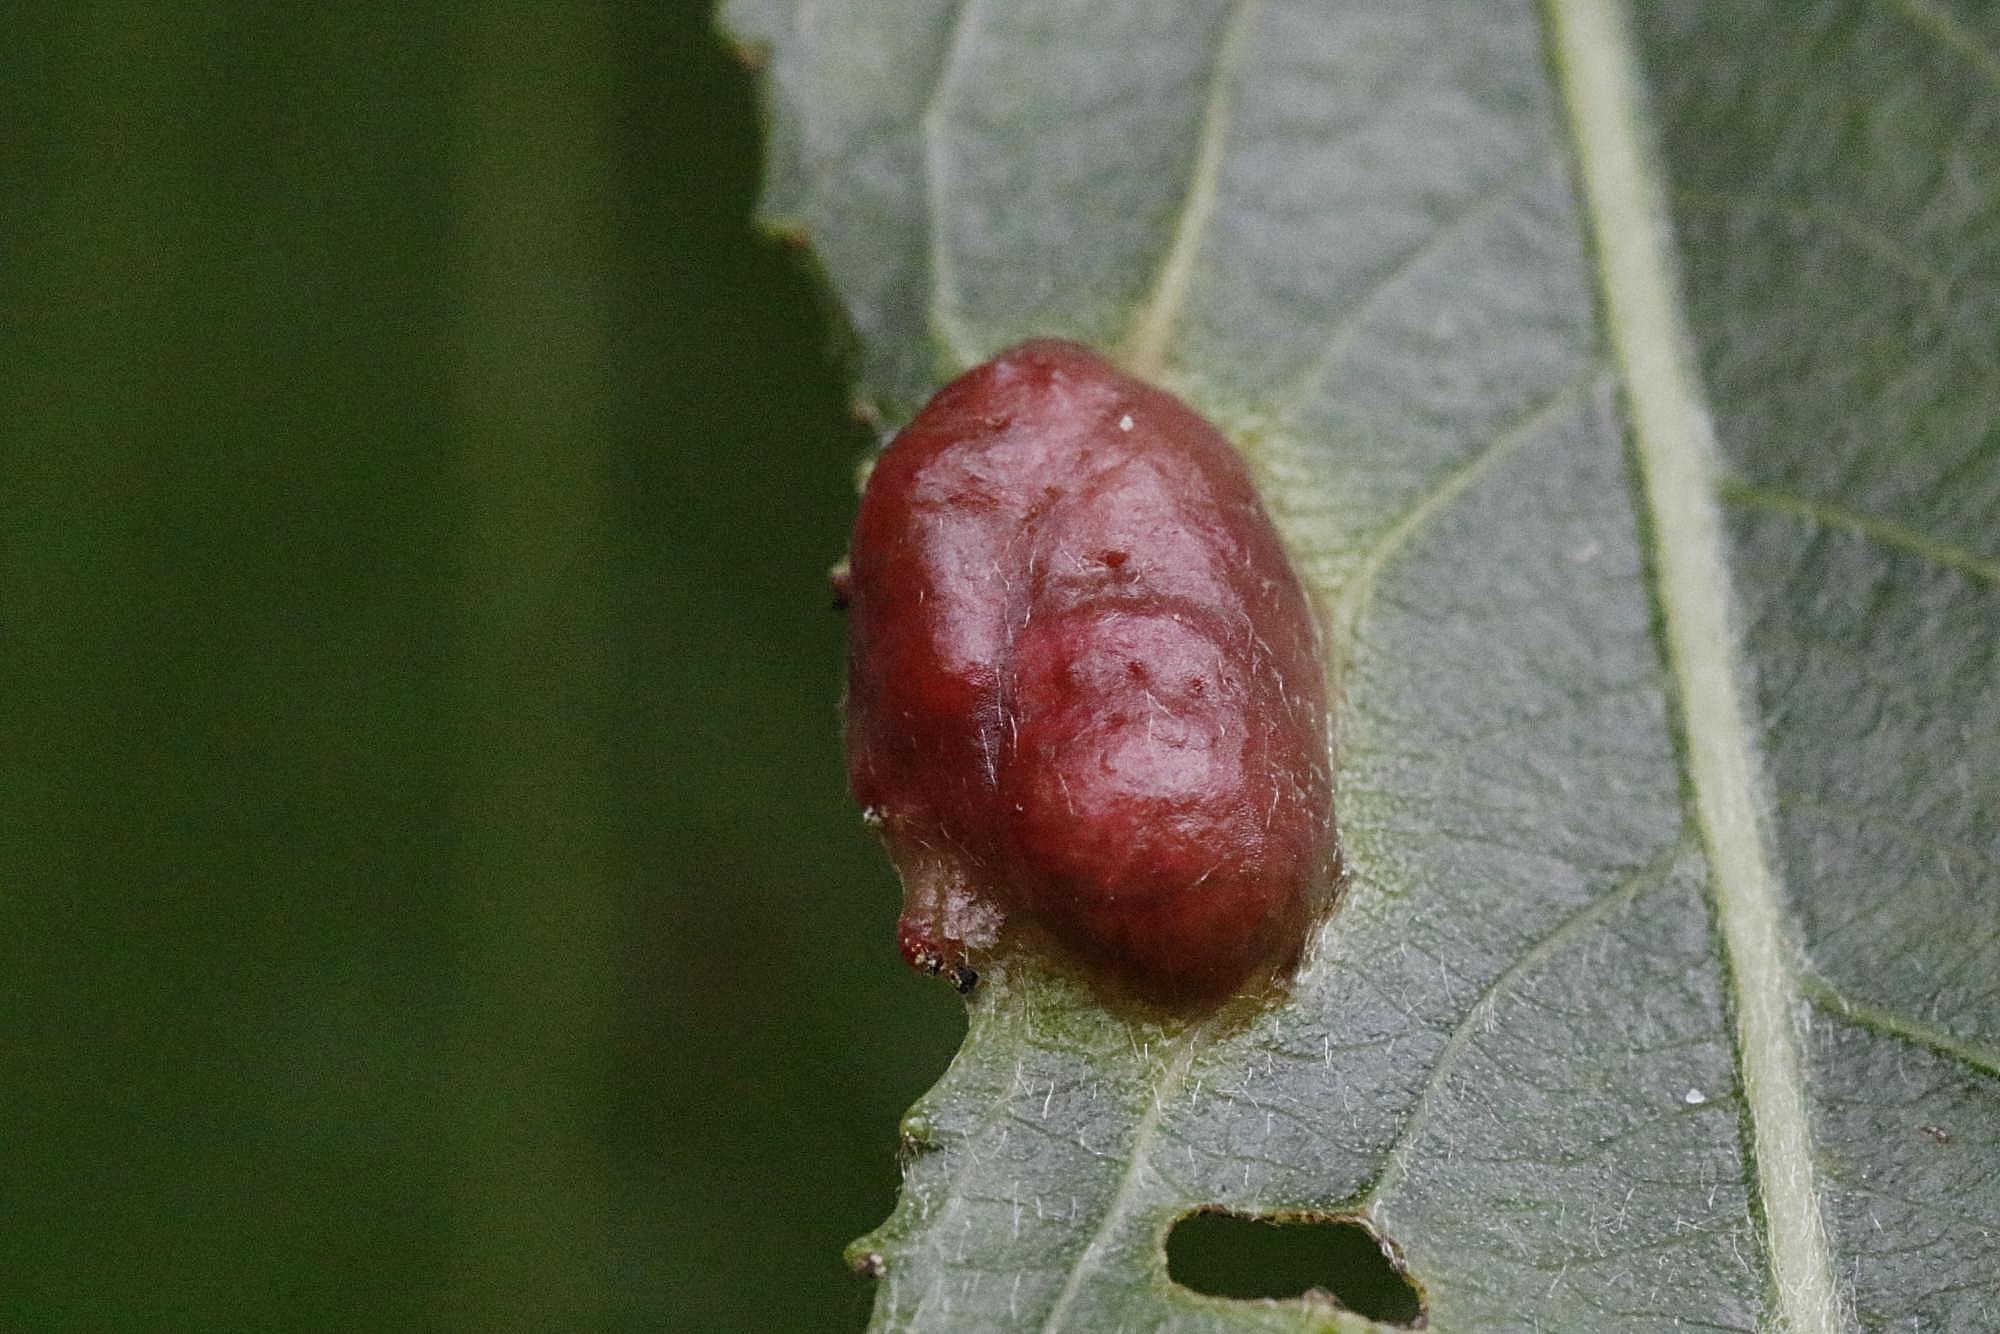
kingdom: Animalia
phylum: Arthropoda
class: Insecta
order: Hymenoptera
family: Tenthredinidae
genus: Pontania
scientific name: Pontania proxima
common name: Common sawfly
